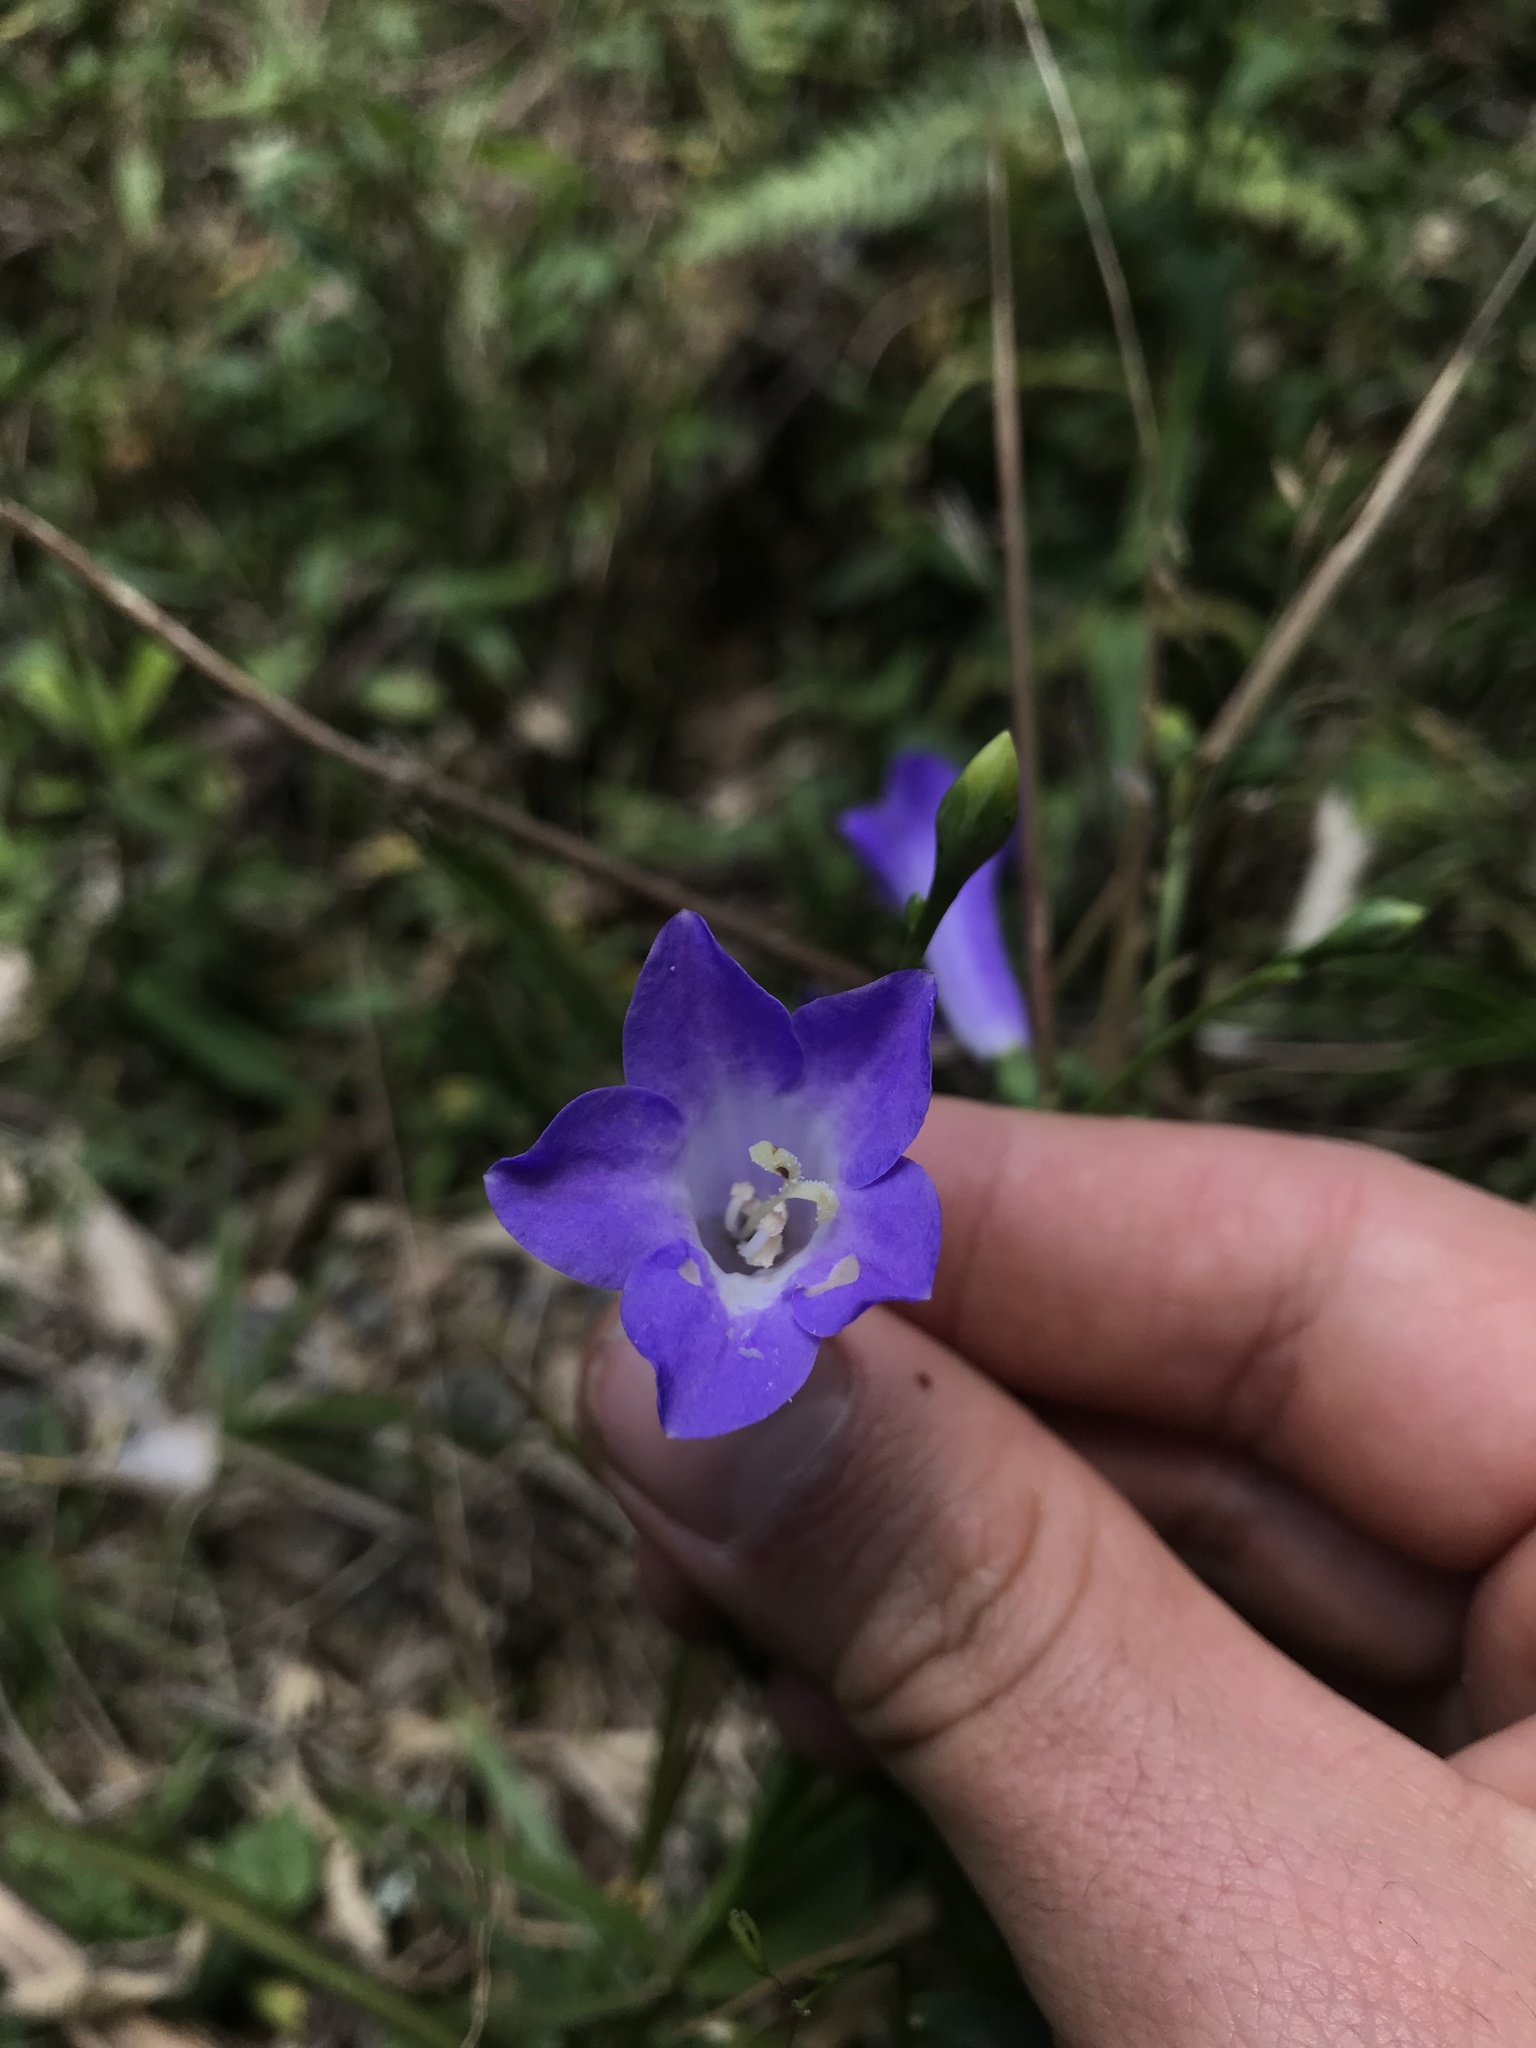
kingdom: Plantae
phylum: Tracheophyta
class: Magnoliopsida
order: Gentianales
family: Gentianaceae
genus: Chelonanthus
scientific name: Chelonanthus purpurascens
